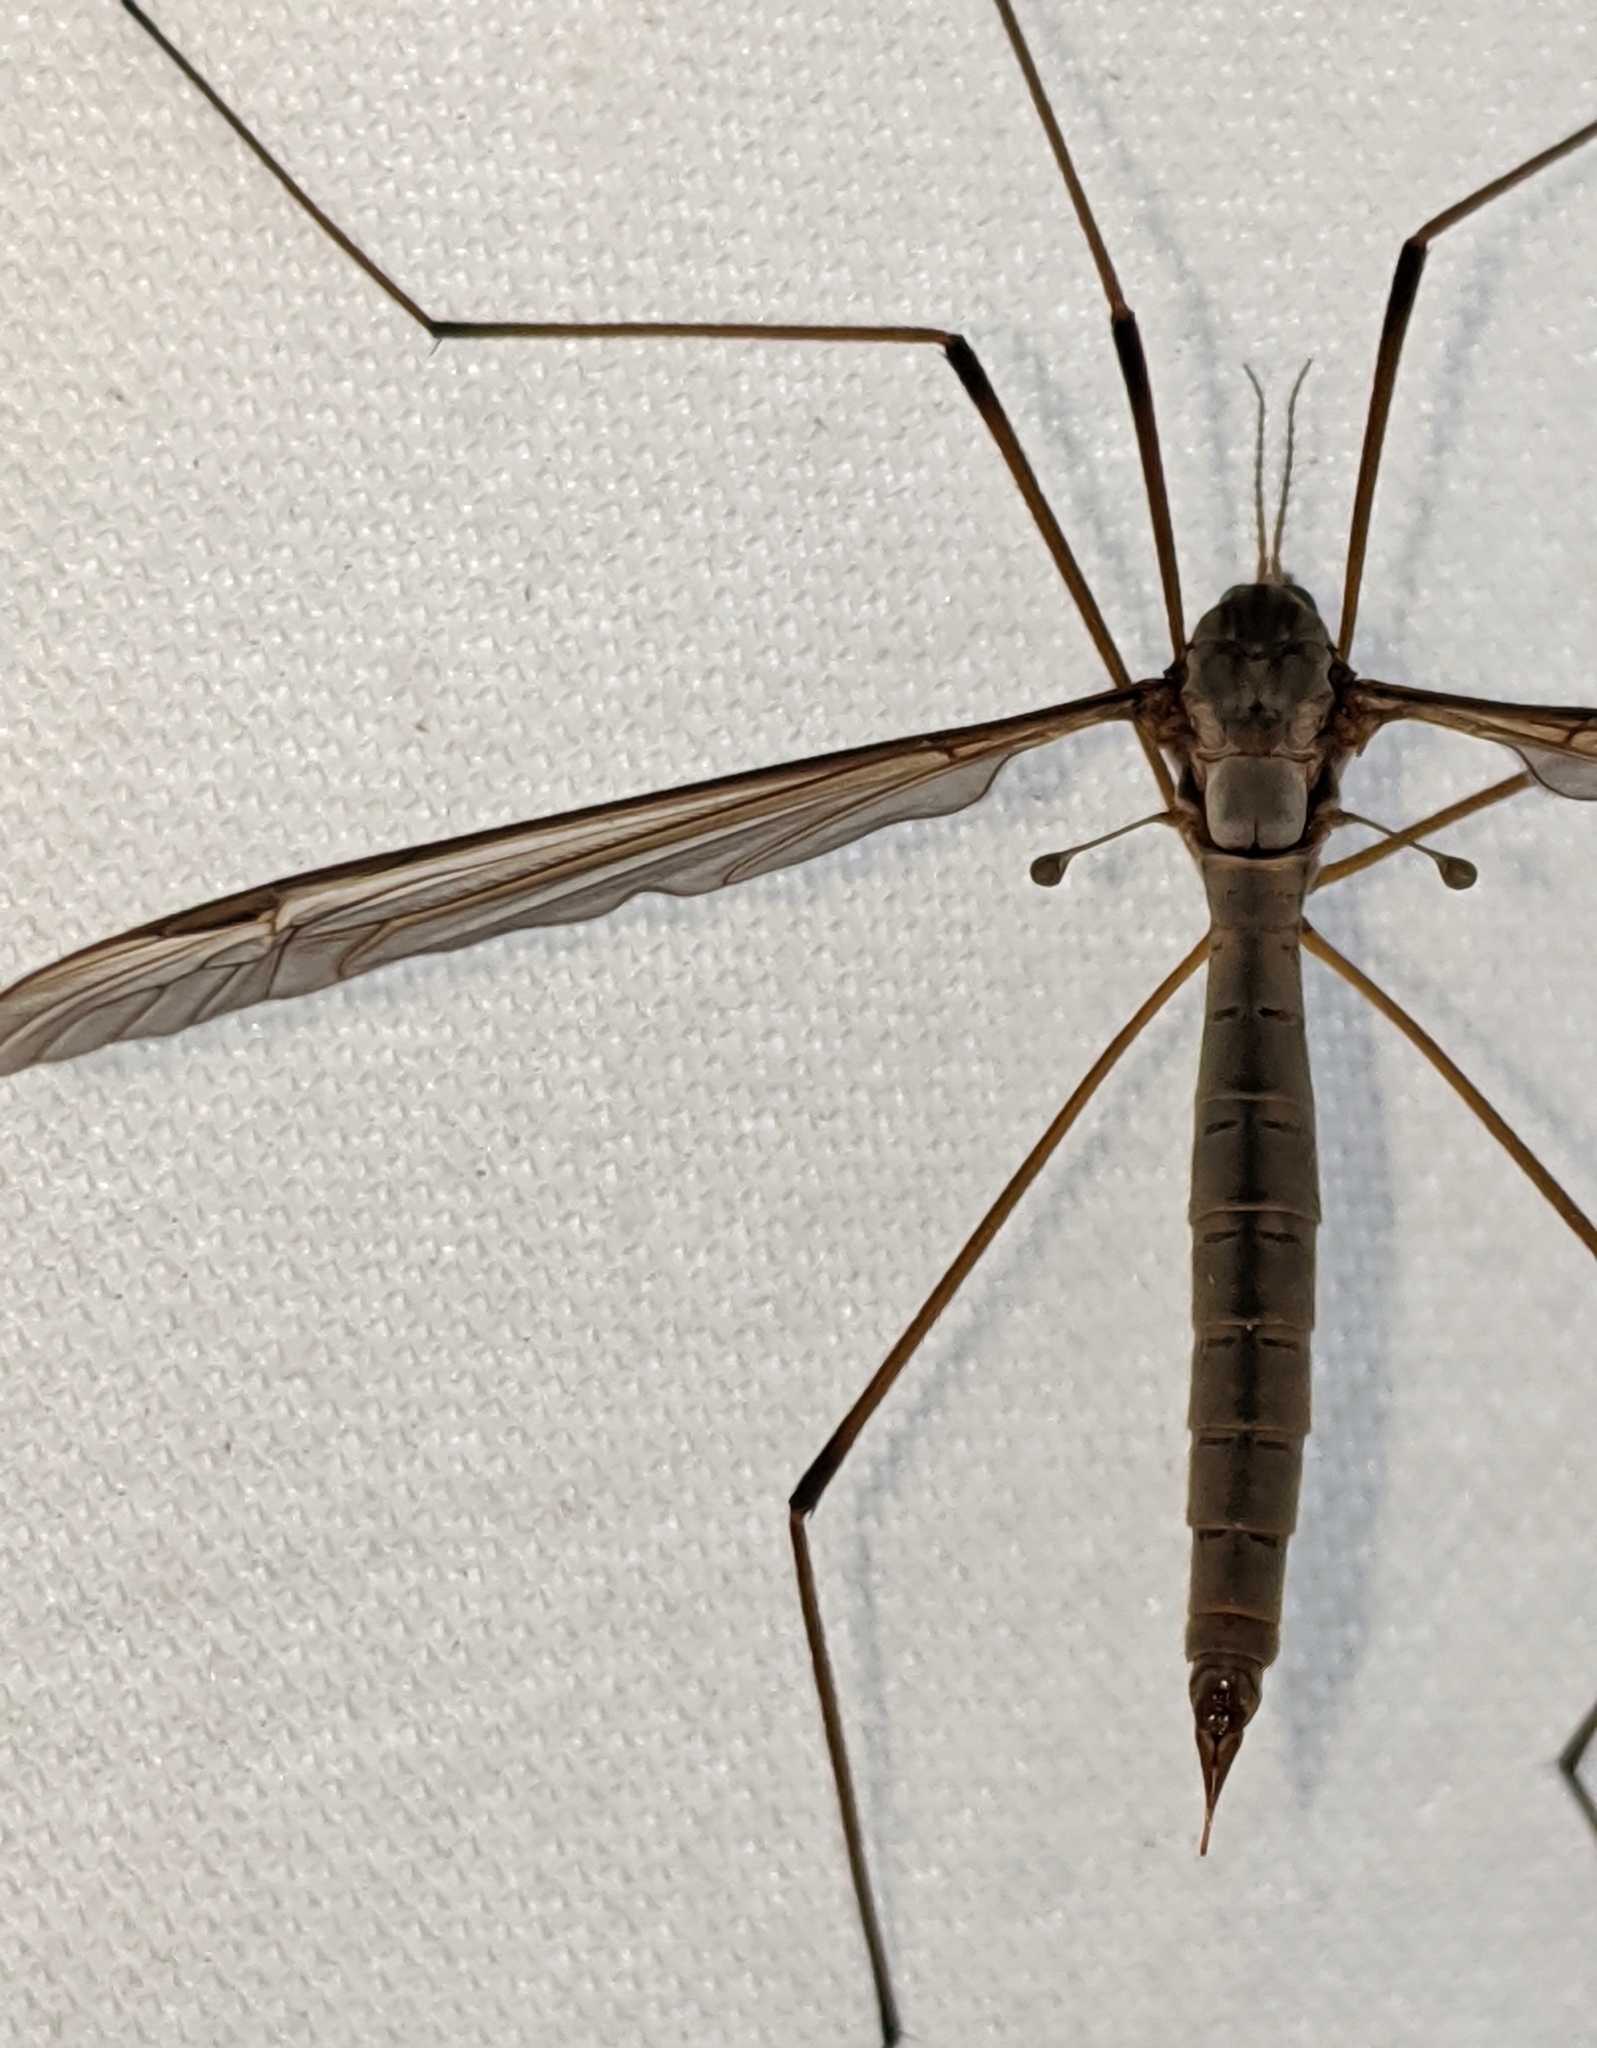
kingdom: Animalia
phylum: Arthropoda
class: Insecta
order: Diptera
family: Tipulidae
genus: Tipula
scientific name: Tipula oleracea
